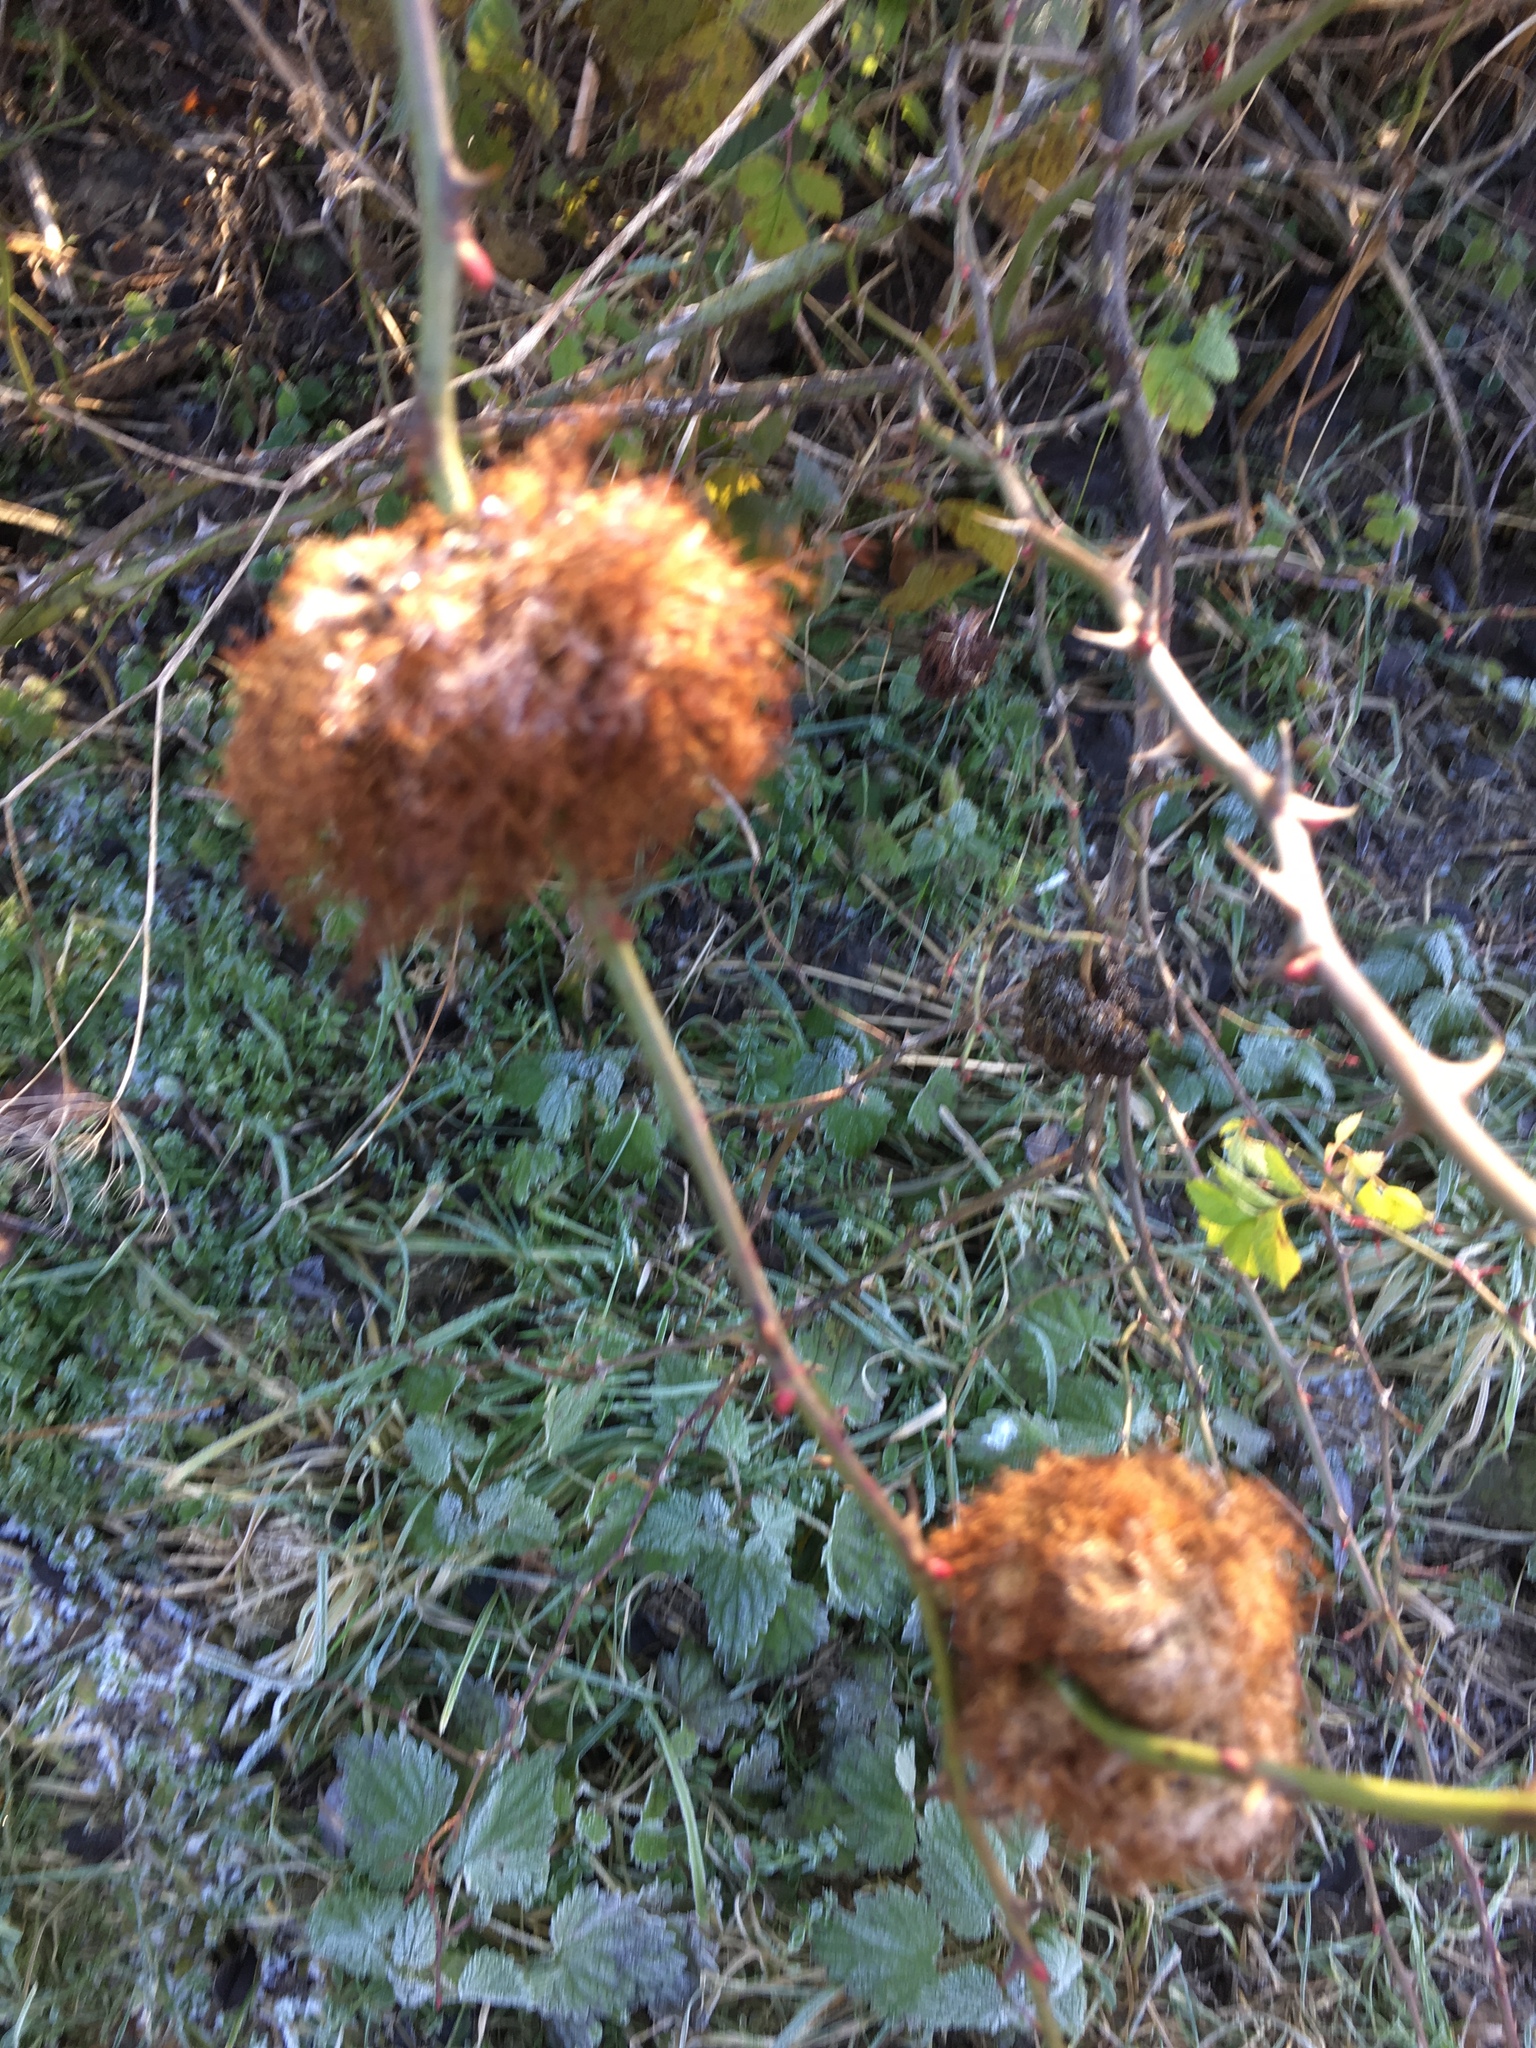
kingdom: Animalia
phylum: Arthropoda
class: Insecta
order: Hymenoptera
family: Cynipidae
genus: Diplolepis
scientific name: Diplolepis rosae
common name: Bedeguar gall
